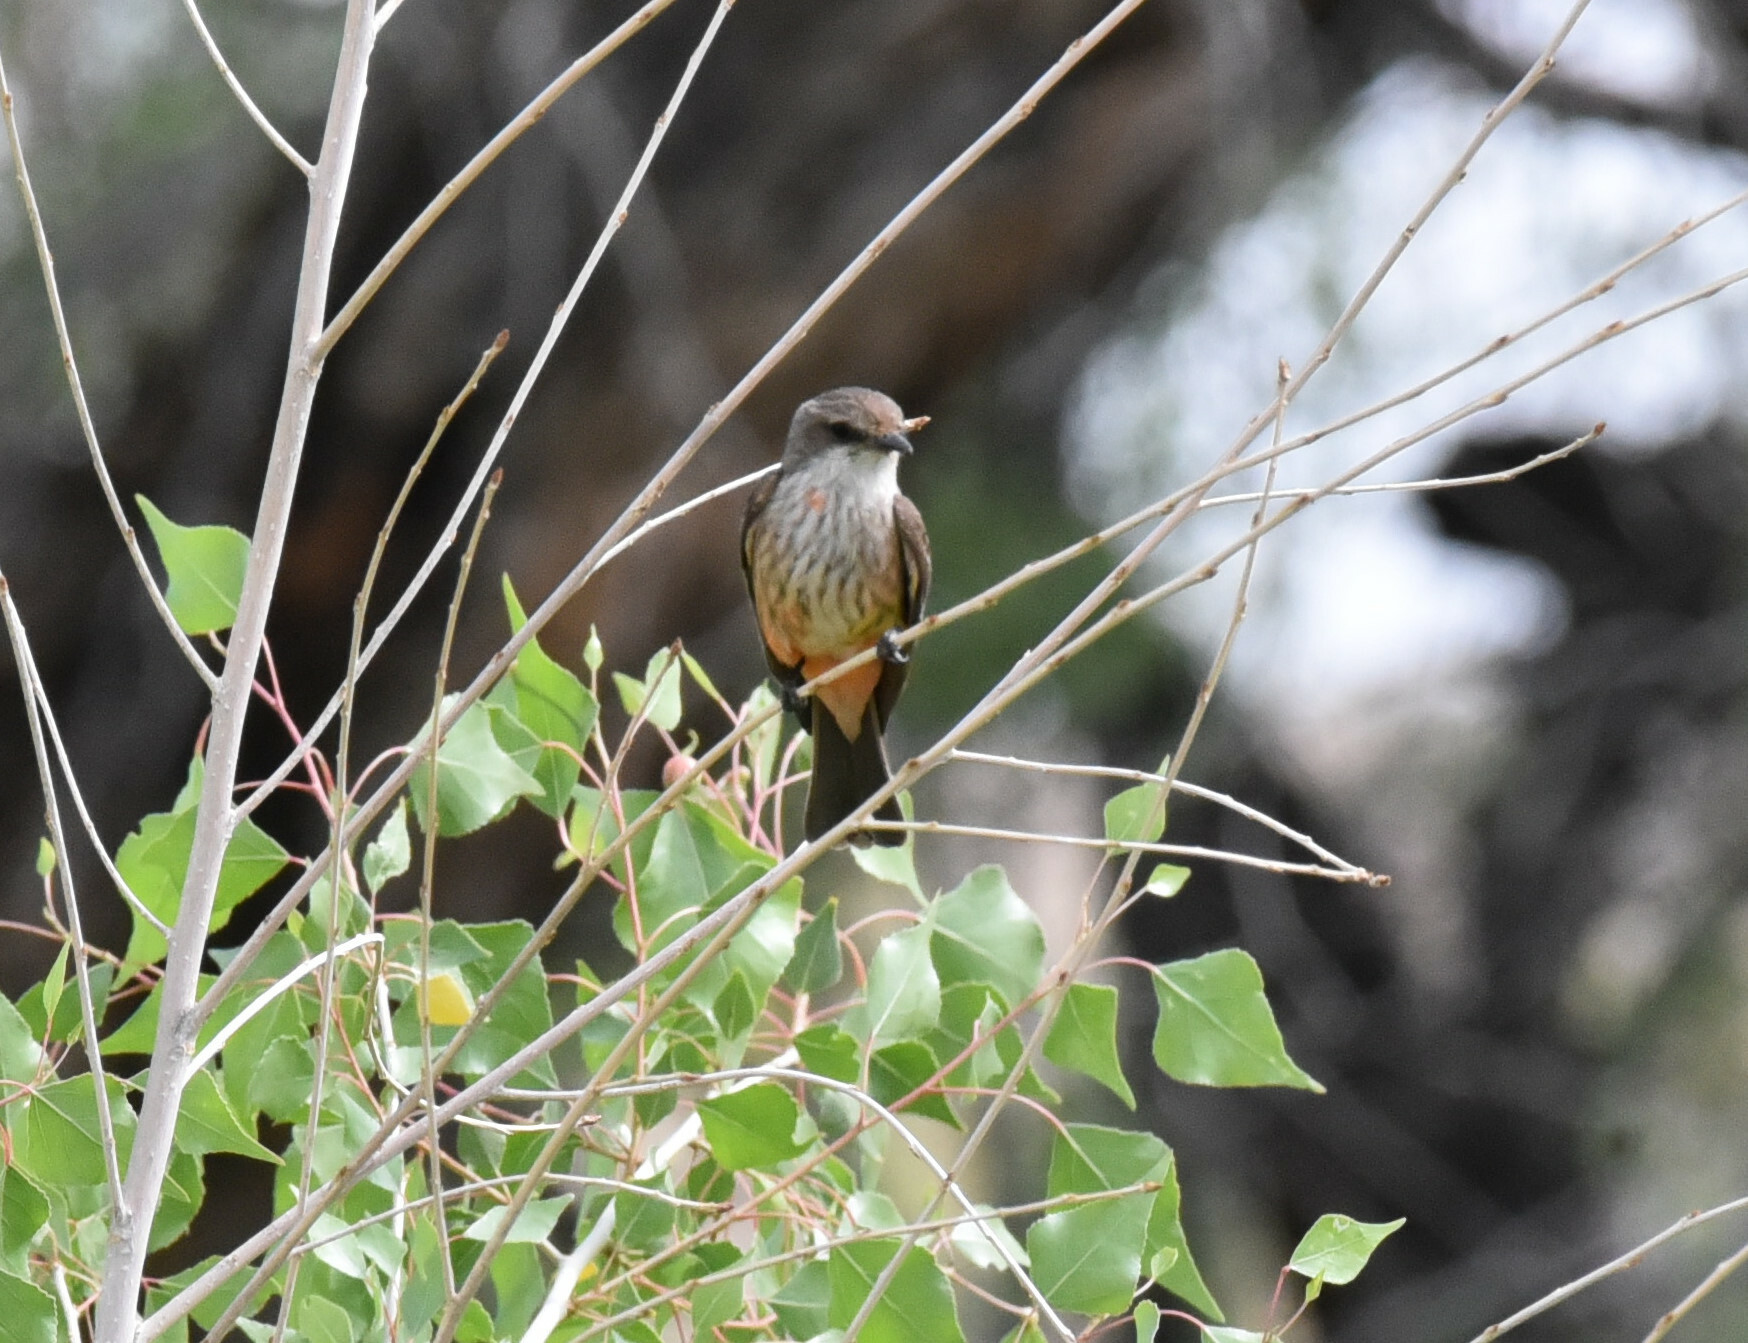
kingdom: Animalia
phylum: Chordata
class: Aves
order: Passeriformes
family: Tyrannidae
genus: Pyrocephalus
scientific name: Pyrocephalus rubinus
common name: Vermilion flycatcher
